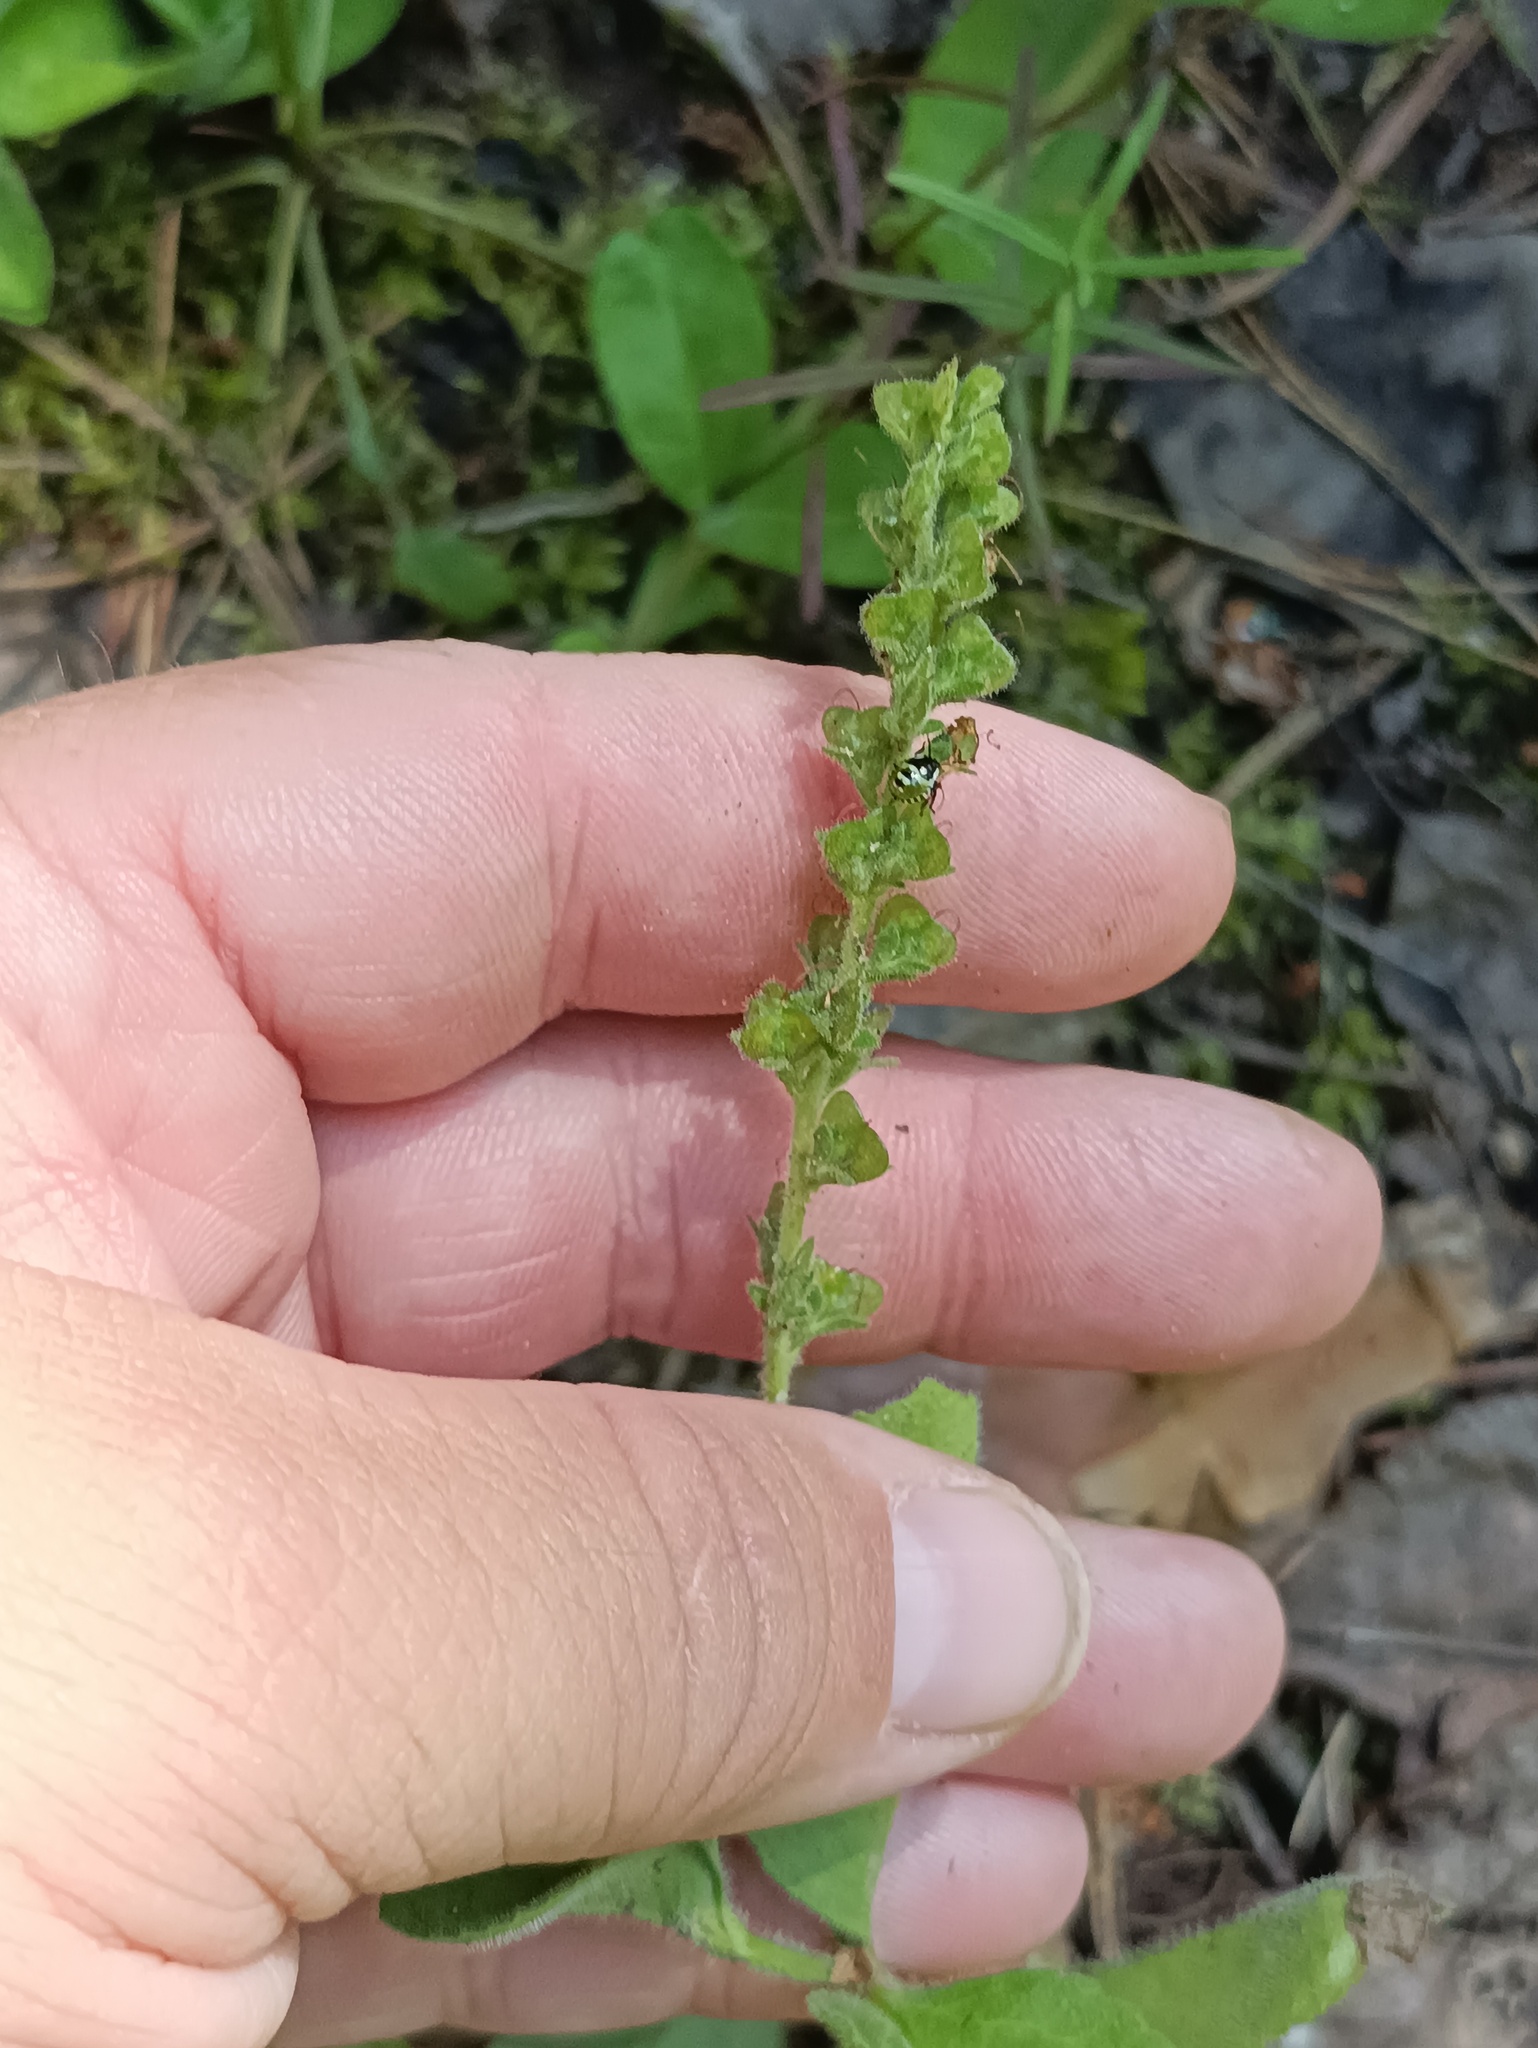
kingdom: Plantae
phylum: Tracheophyta
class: Magnoliopsida
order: Lamiales
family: Plantaginaceae
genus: Veronica
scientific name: Veronica officinalis
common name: Common speedwell
